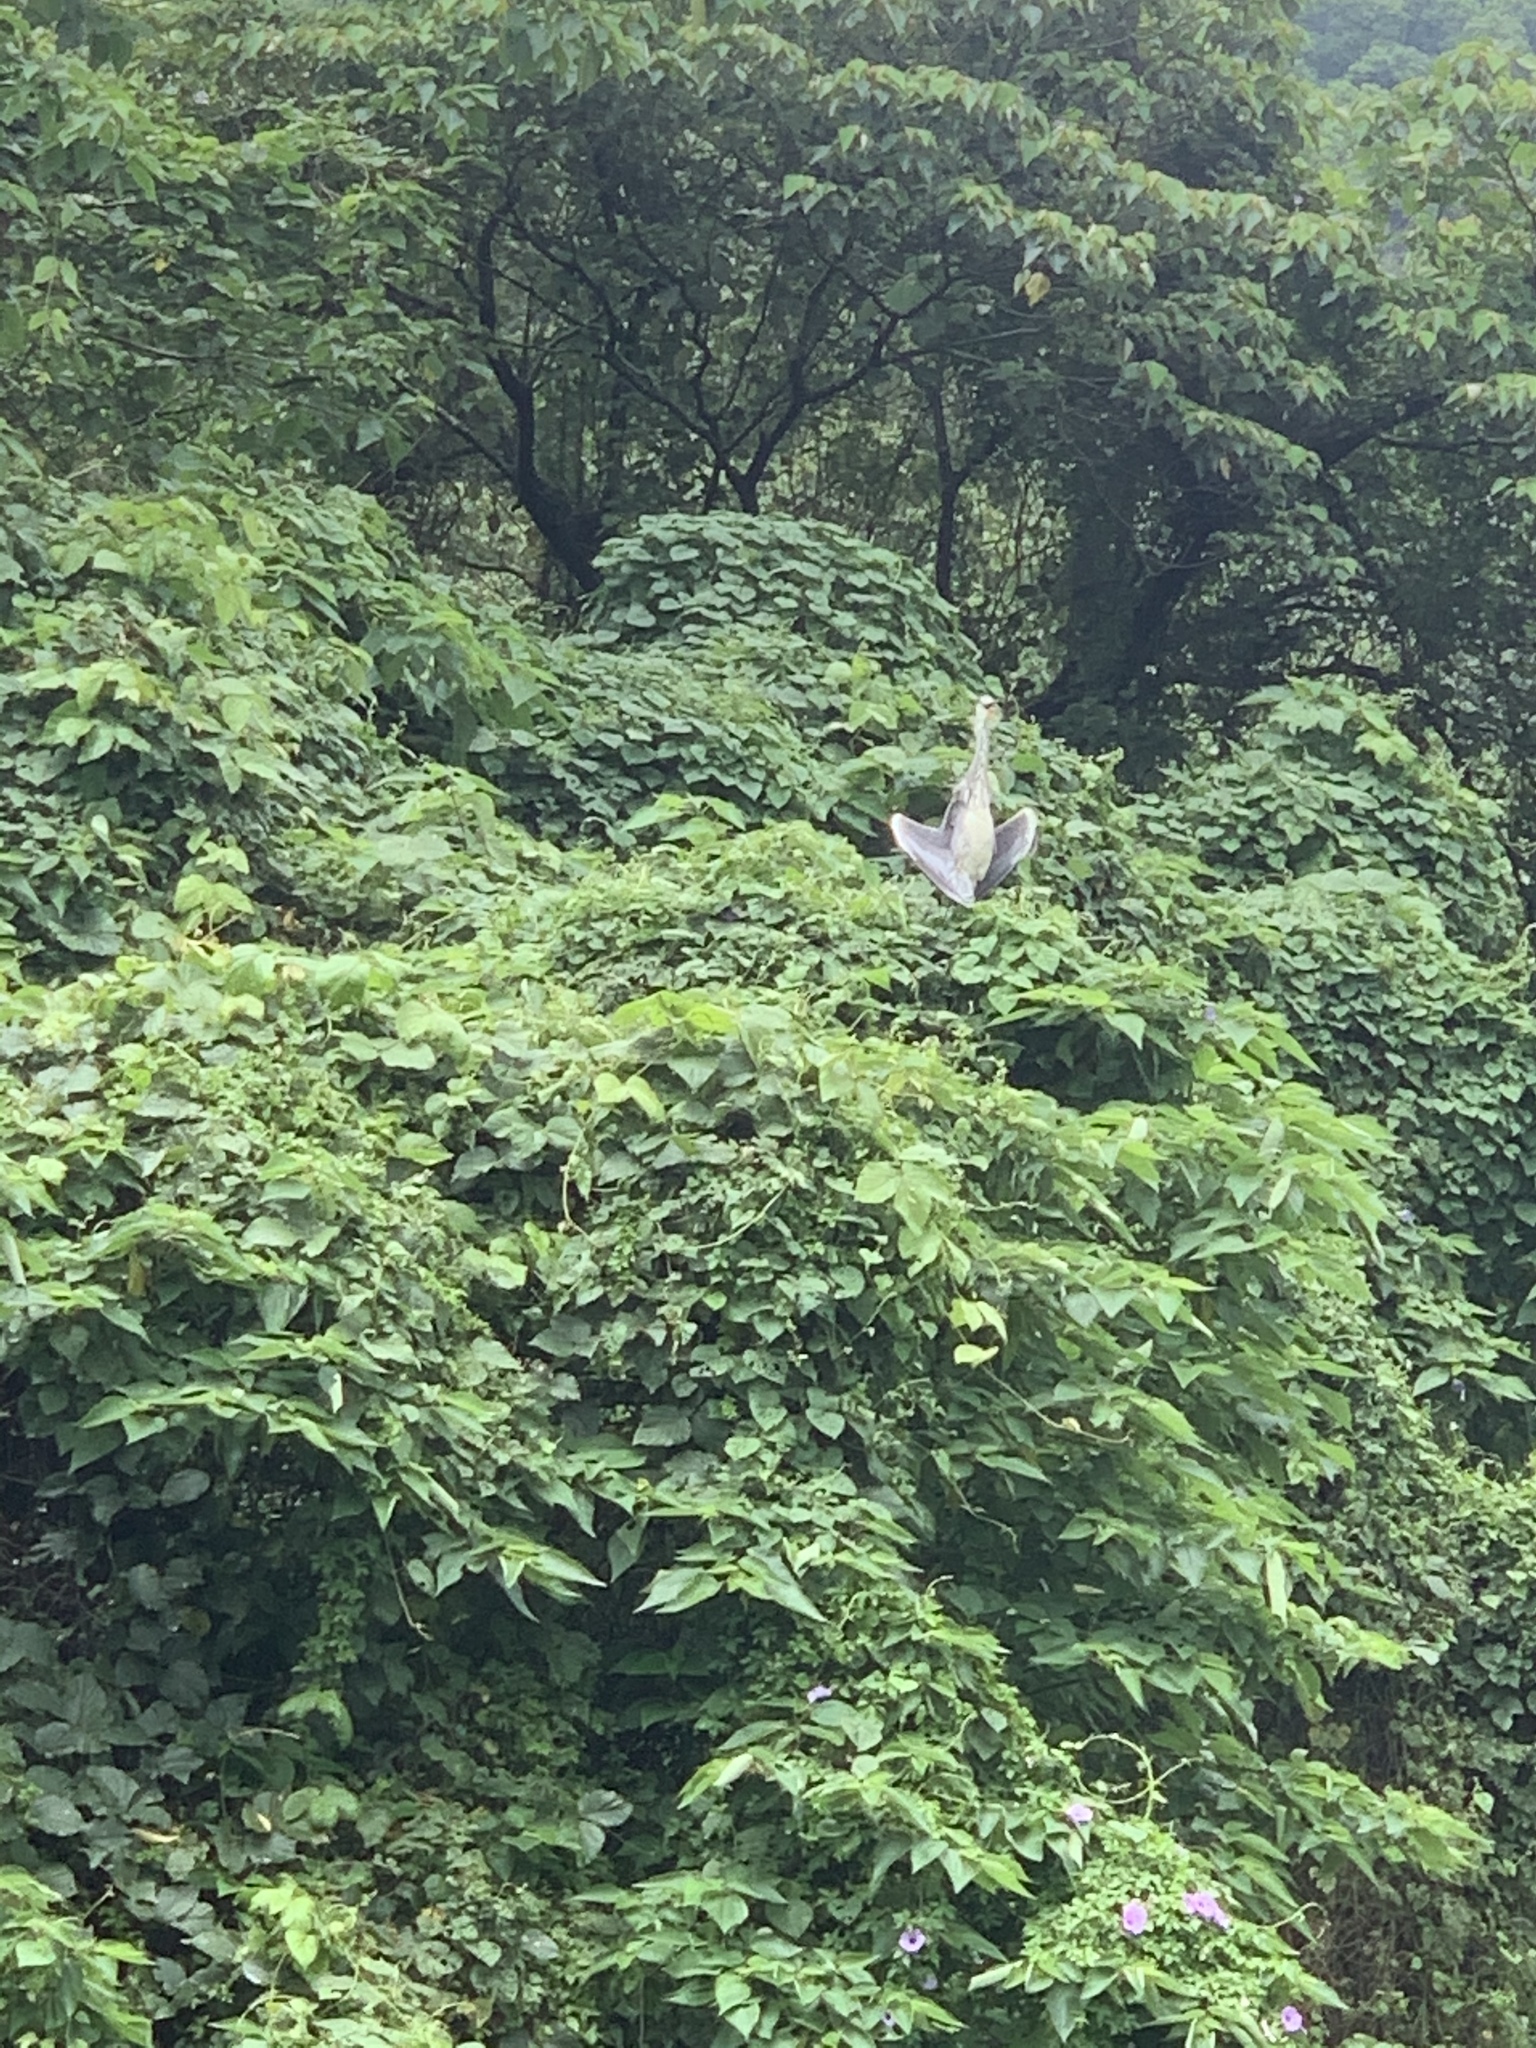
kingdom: Animalia
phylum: Chordata
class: Aves
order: Pelecaniformes
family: Ardeidae
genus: Ardea
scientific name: Ardea cinerea
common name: Grey heron
